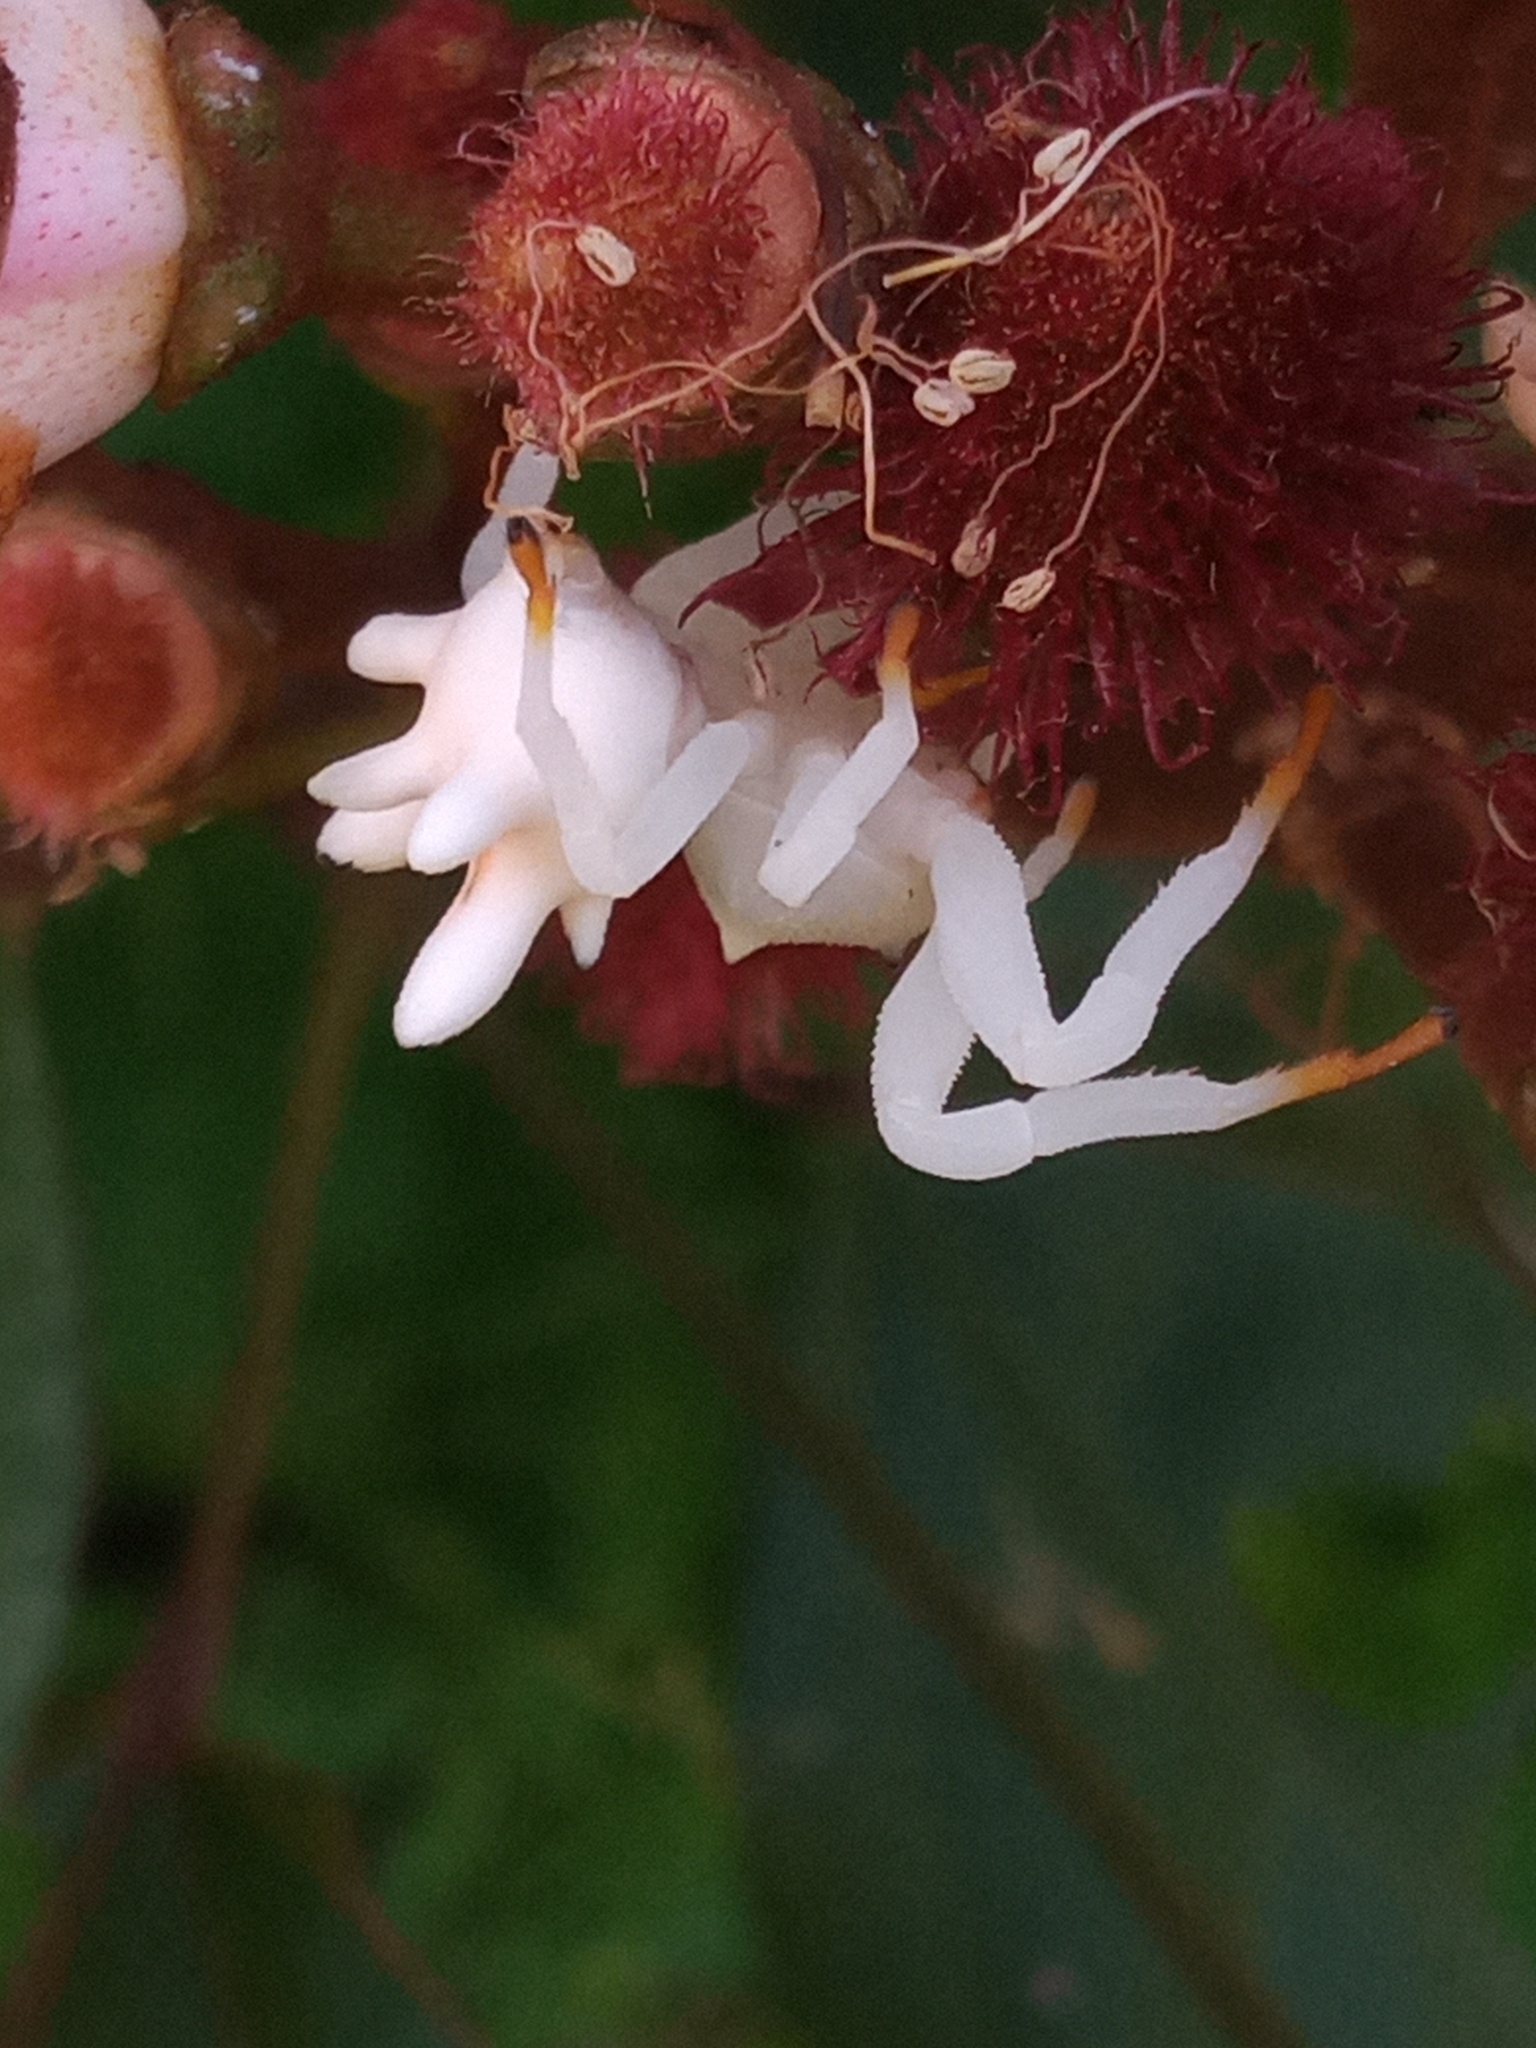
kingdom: Animalia
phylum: Arthropoda
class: Arachnida
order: Araneae
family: Thomisidae
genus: Epicadus
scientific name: Epicadus heterogaster
